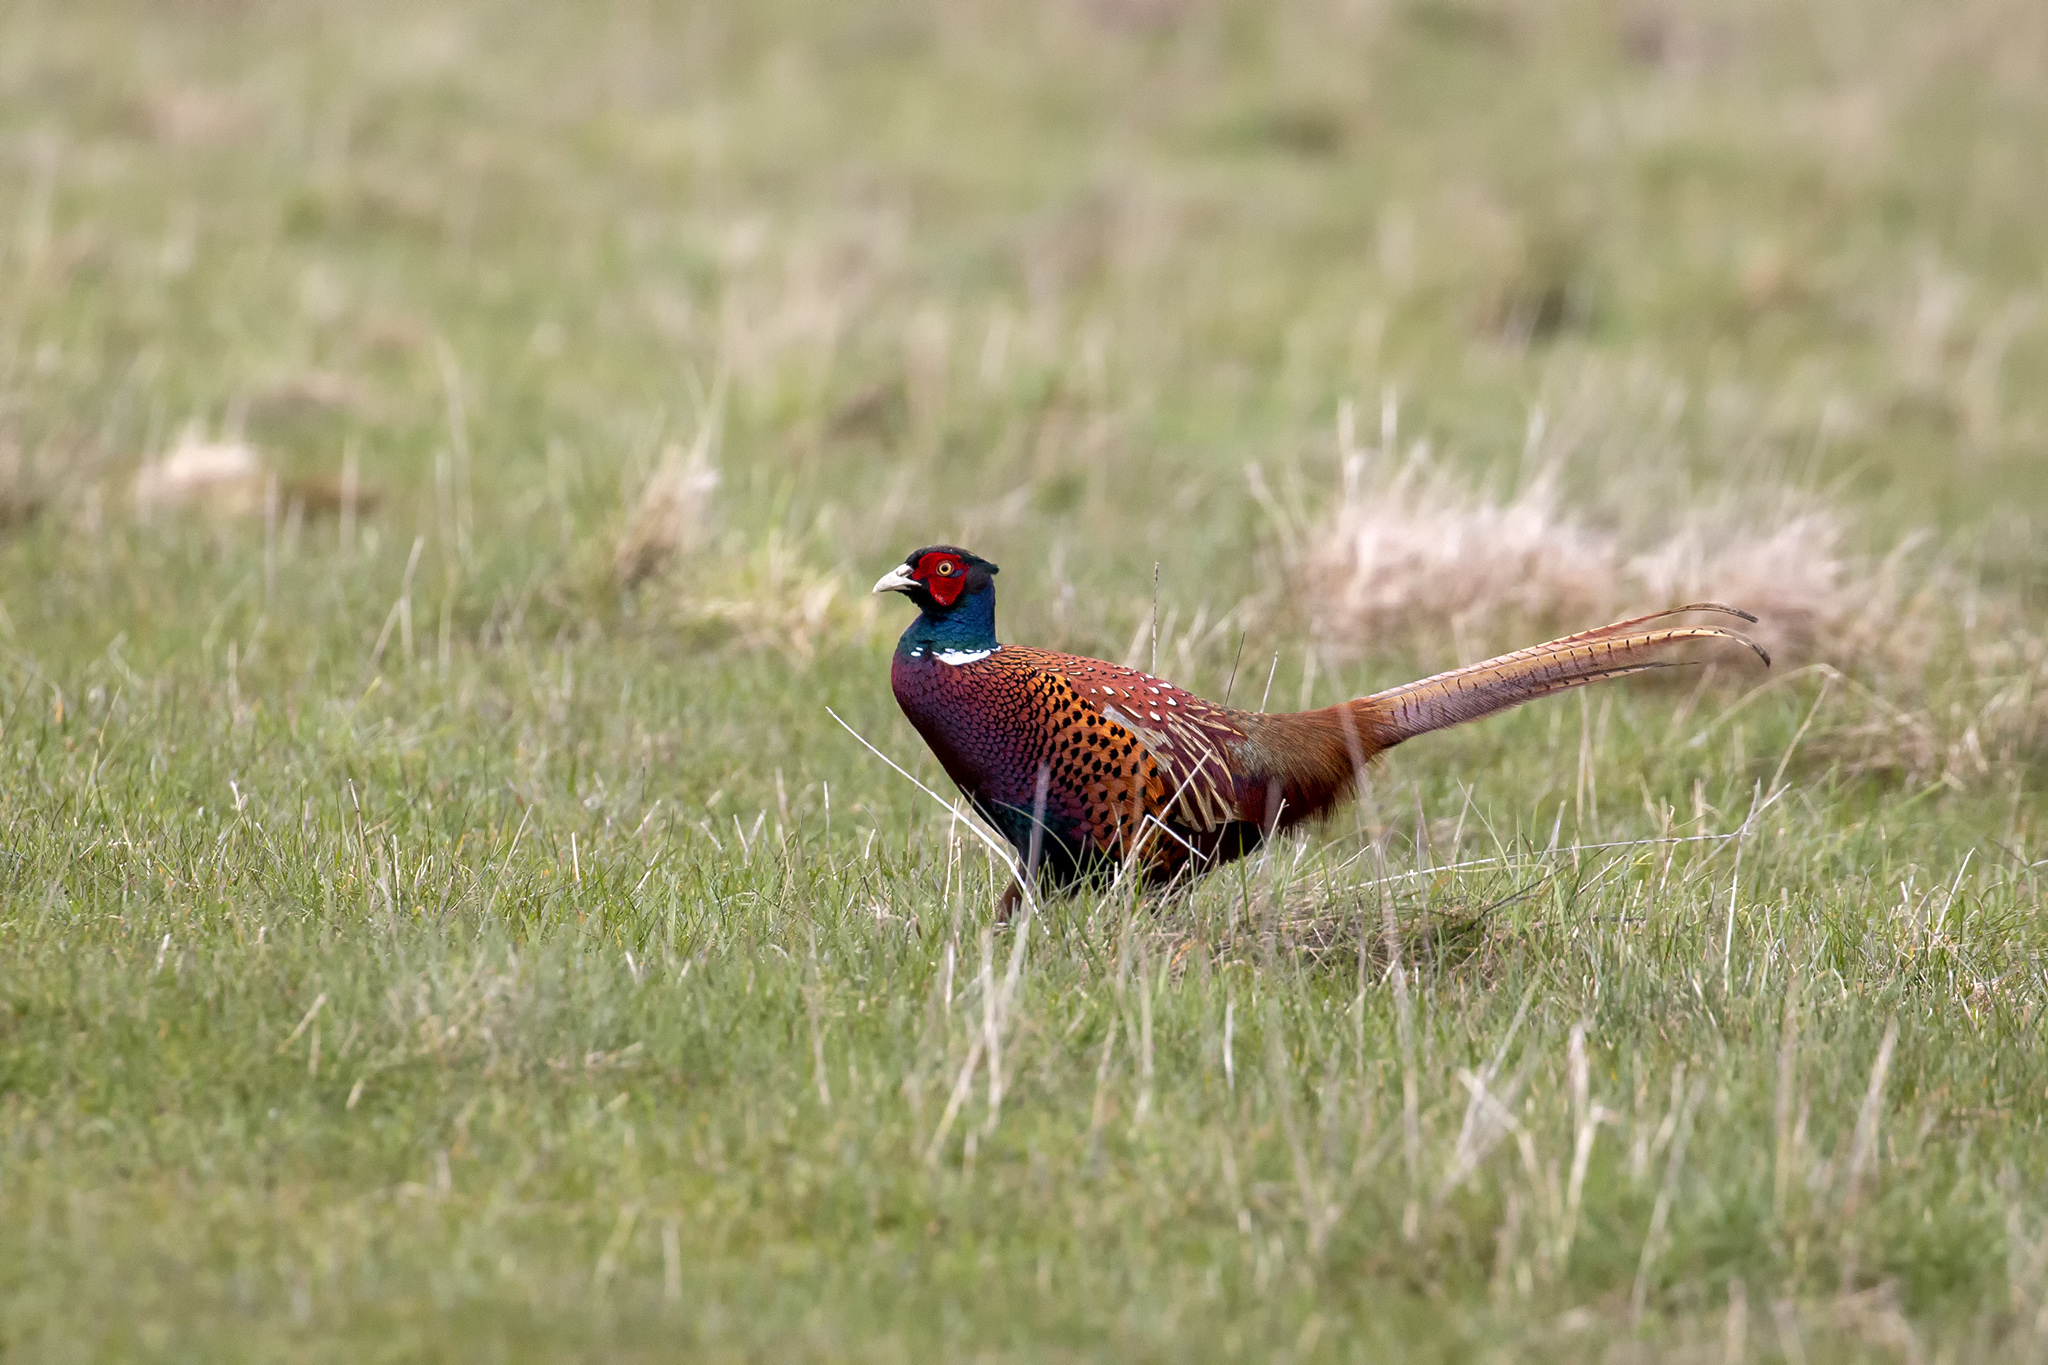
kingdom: Animalia
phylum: Chordata
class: Aves
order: Galliformes
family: Phasianidae
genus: Phasianus
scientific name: Phasianus colchicus
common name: Common pheasant
